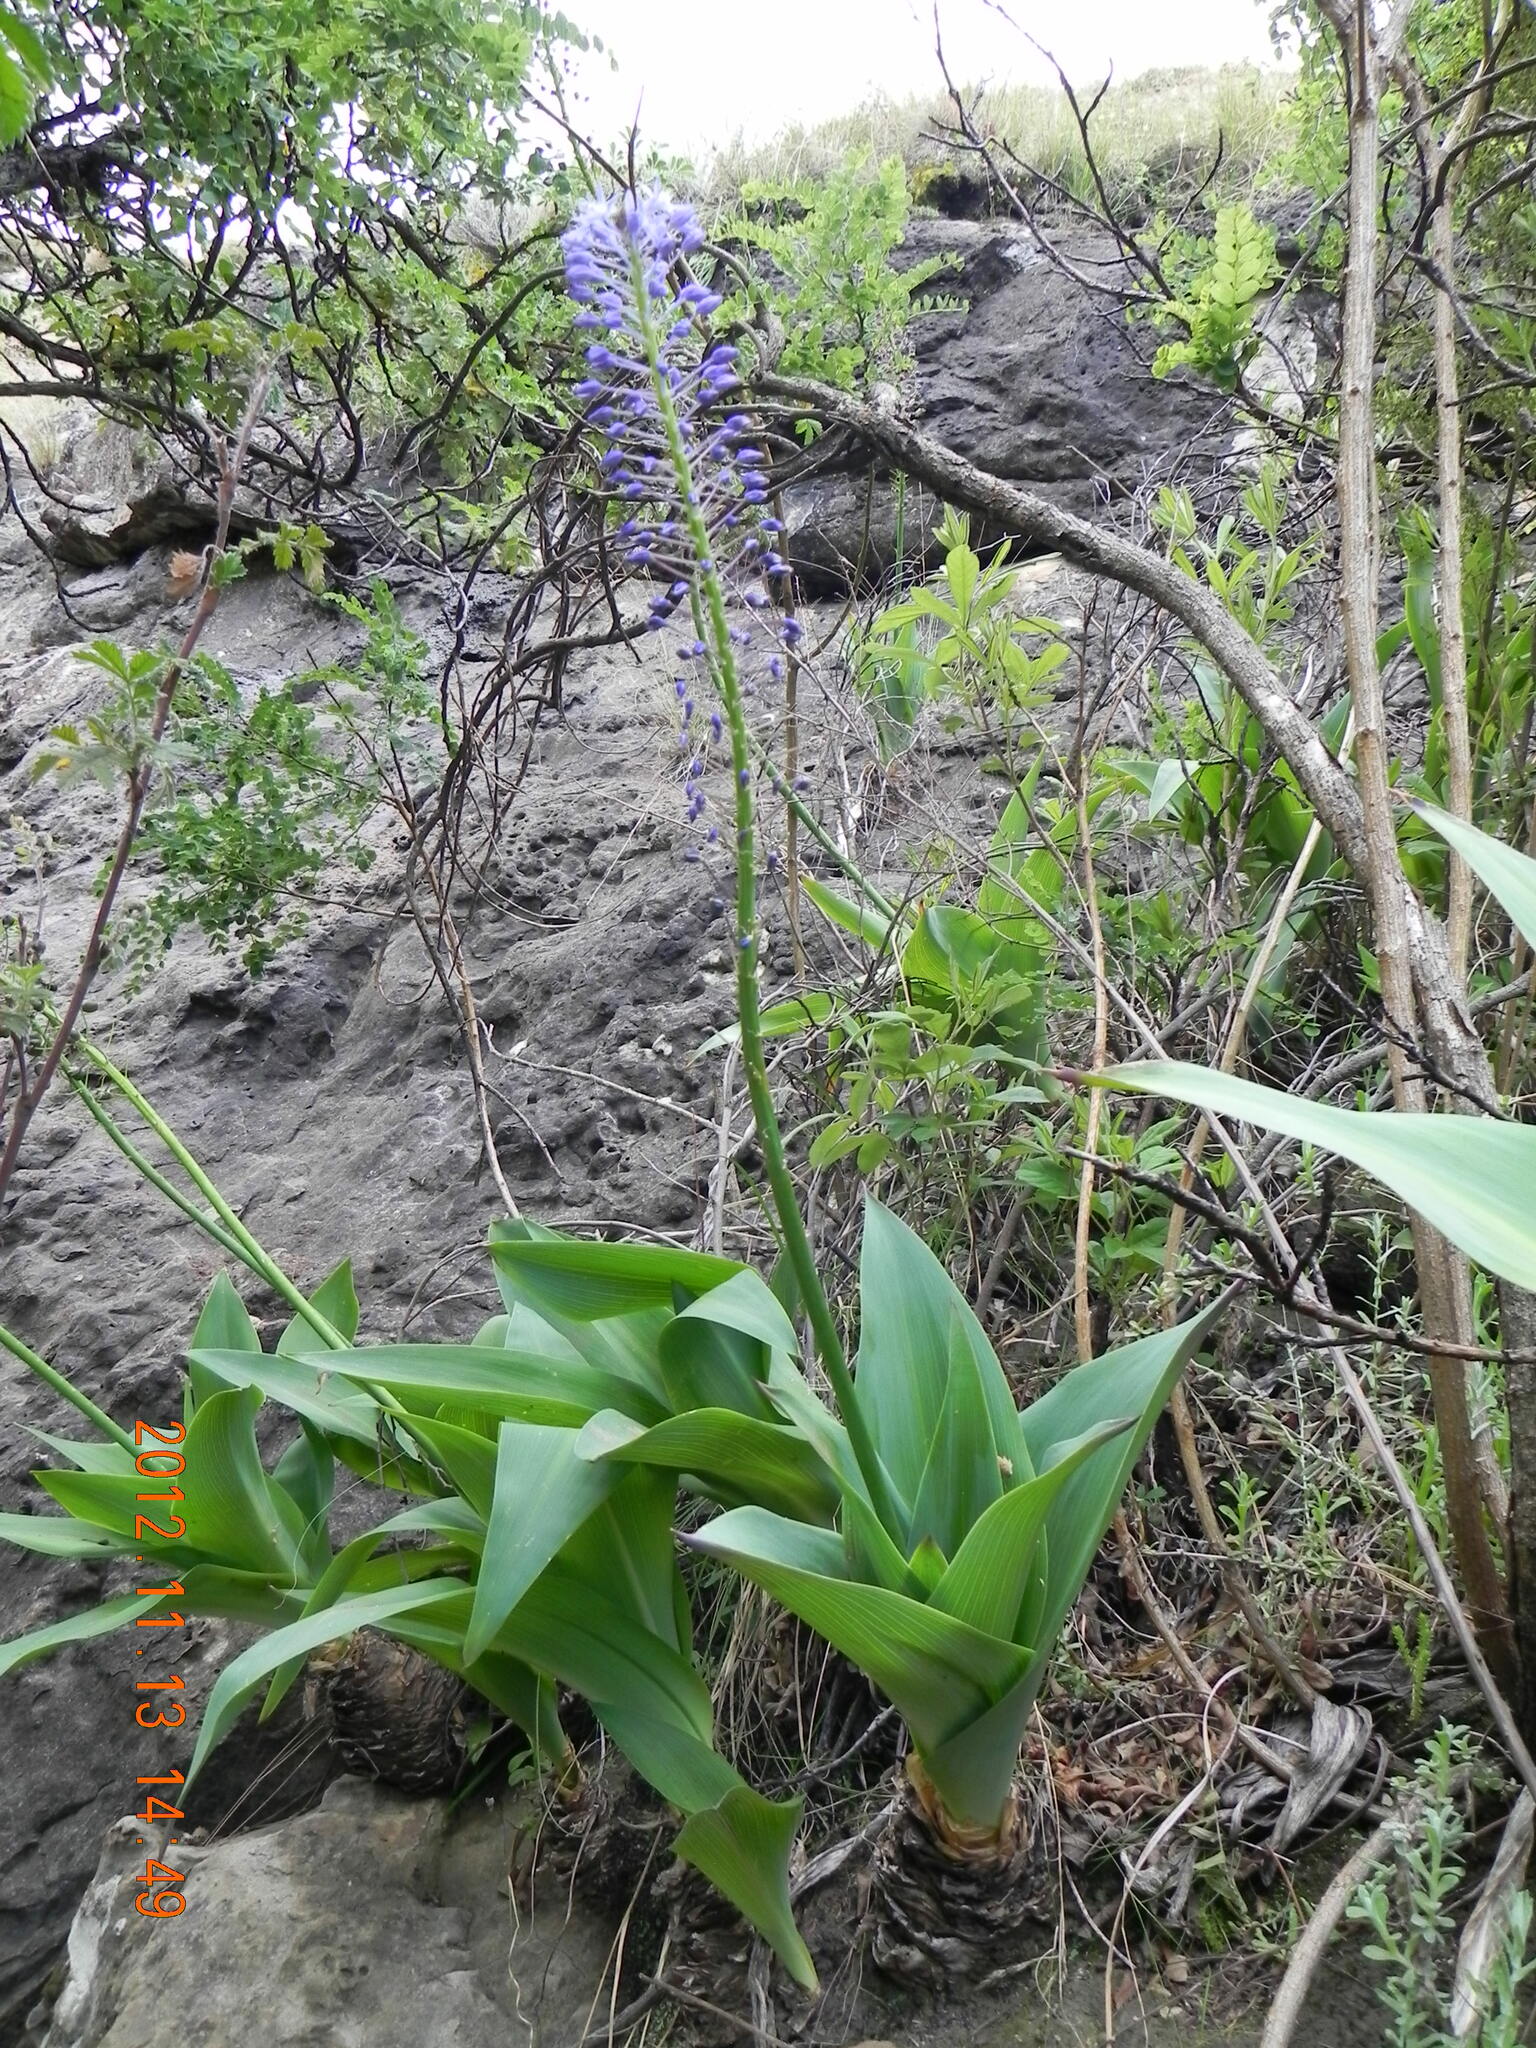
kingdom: Plantae
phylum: Tracheophyta
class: Liliopsida
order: Asparagales
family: Asparagaceae
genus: Merwilla
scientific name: Merwilla plumbea
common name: Blue-squill
